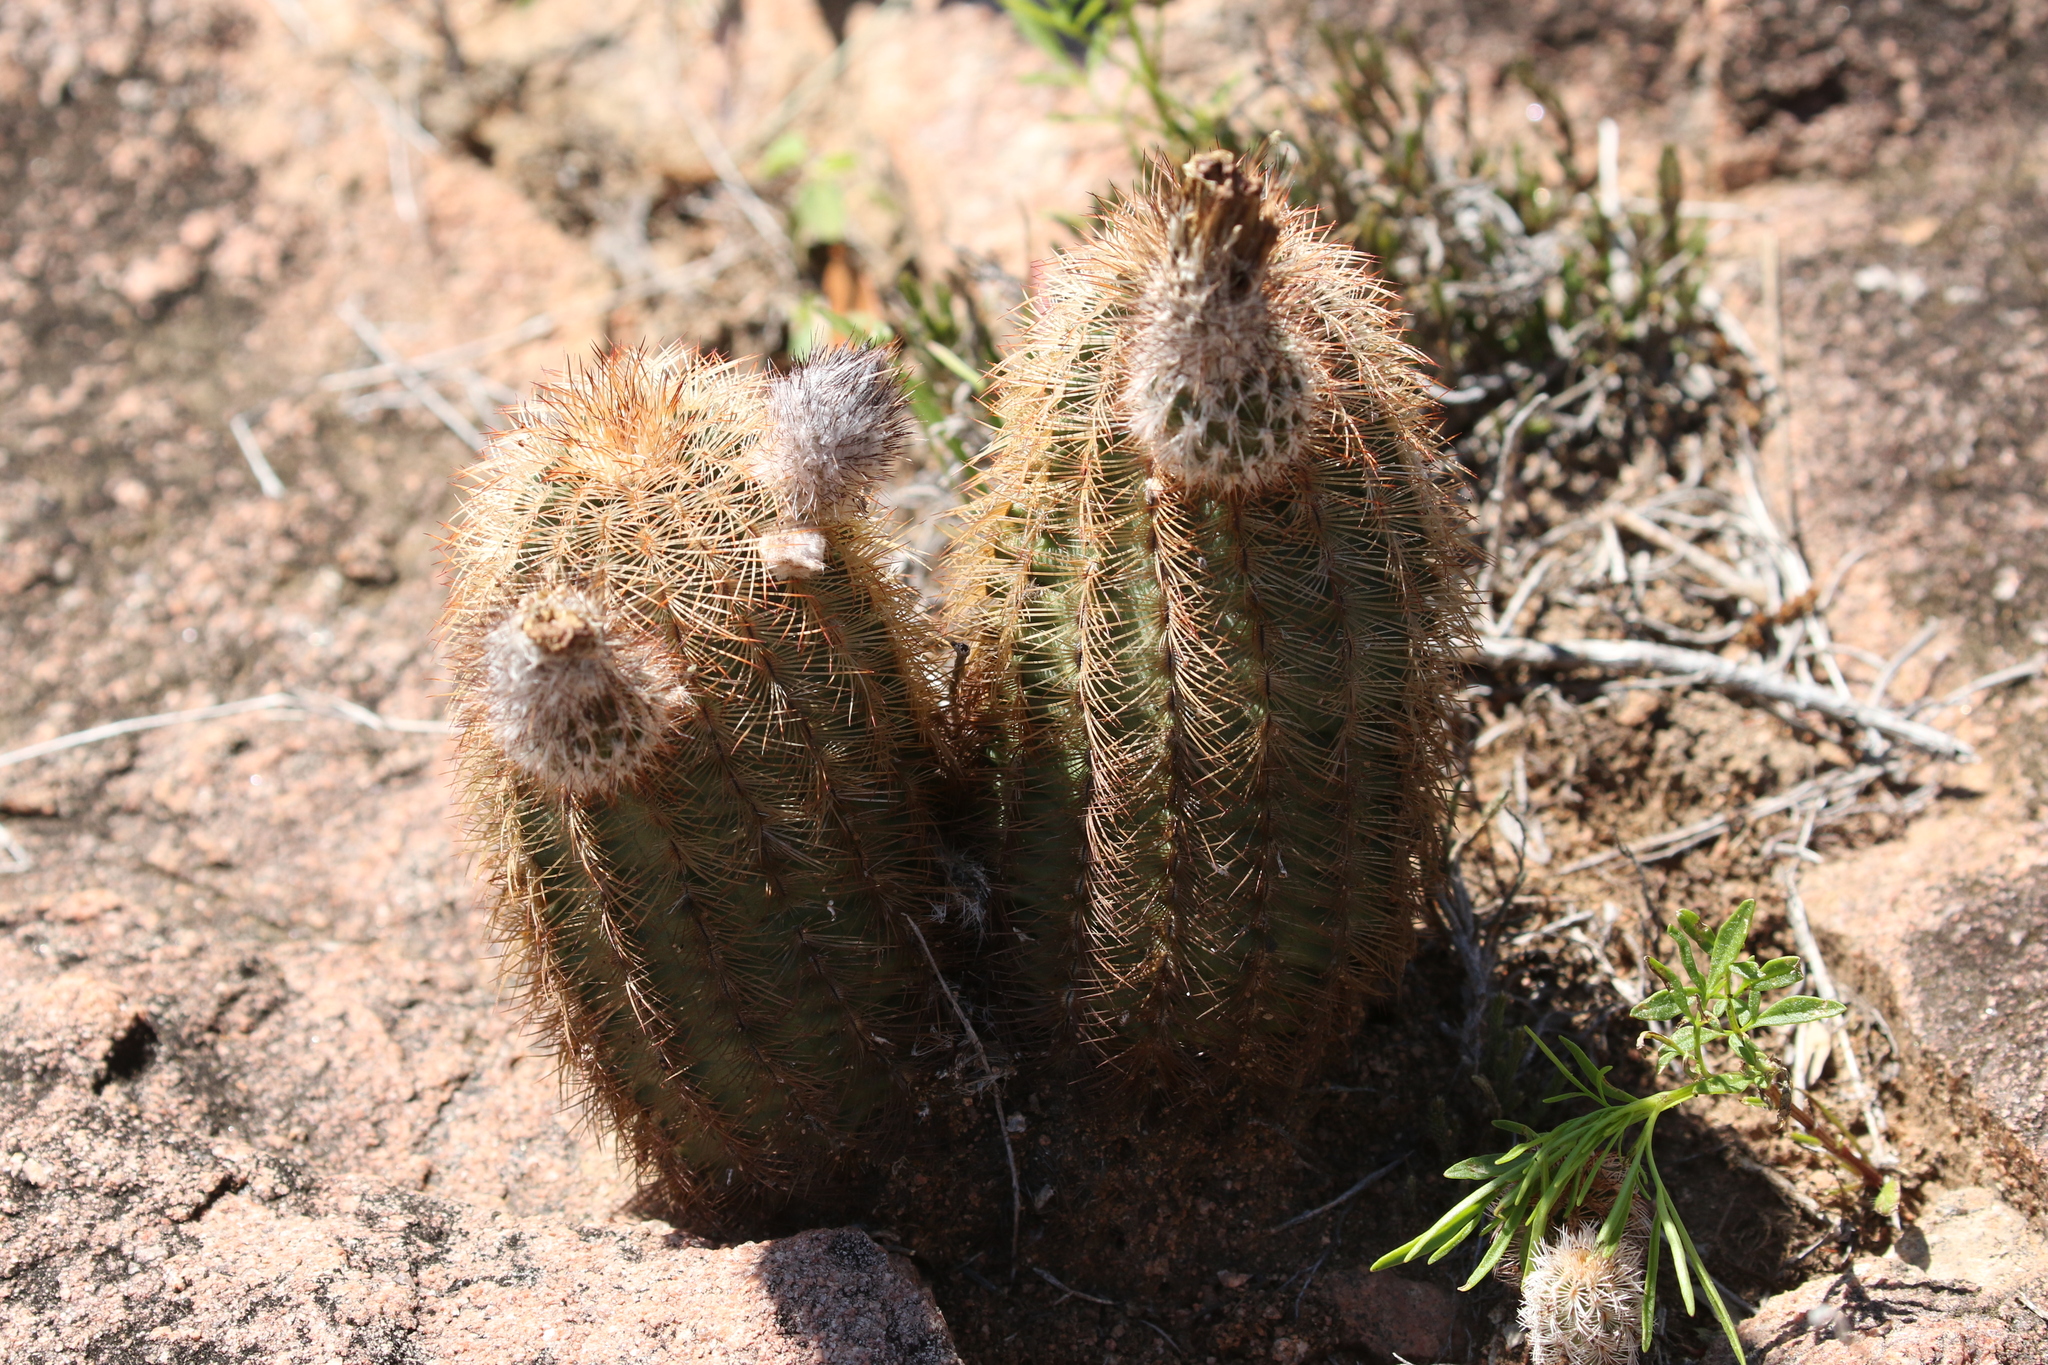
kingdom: Plantae
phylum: Tracheophyta
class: Magnoliopsida
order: Caryophyllales
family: Cactaceae
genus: Echinocereus
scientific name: Echinocereus reichenbachii
